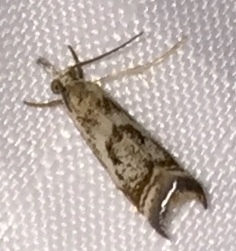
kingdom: Animalia
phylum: Arthropoda
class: Insecta
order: Lepidoptera
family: Crambidae
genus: Microcrambus
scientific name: Microcrambus elegans
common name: Elegant grass-veneer
